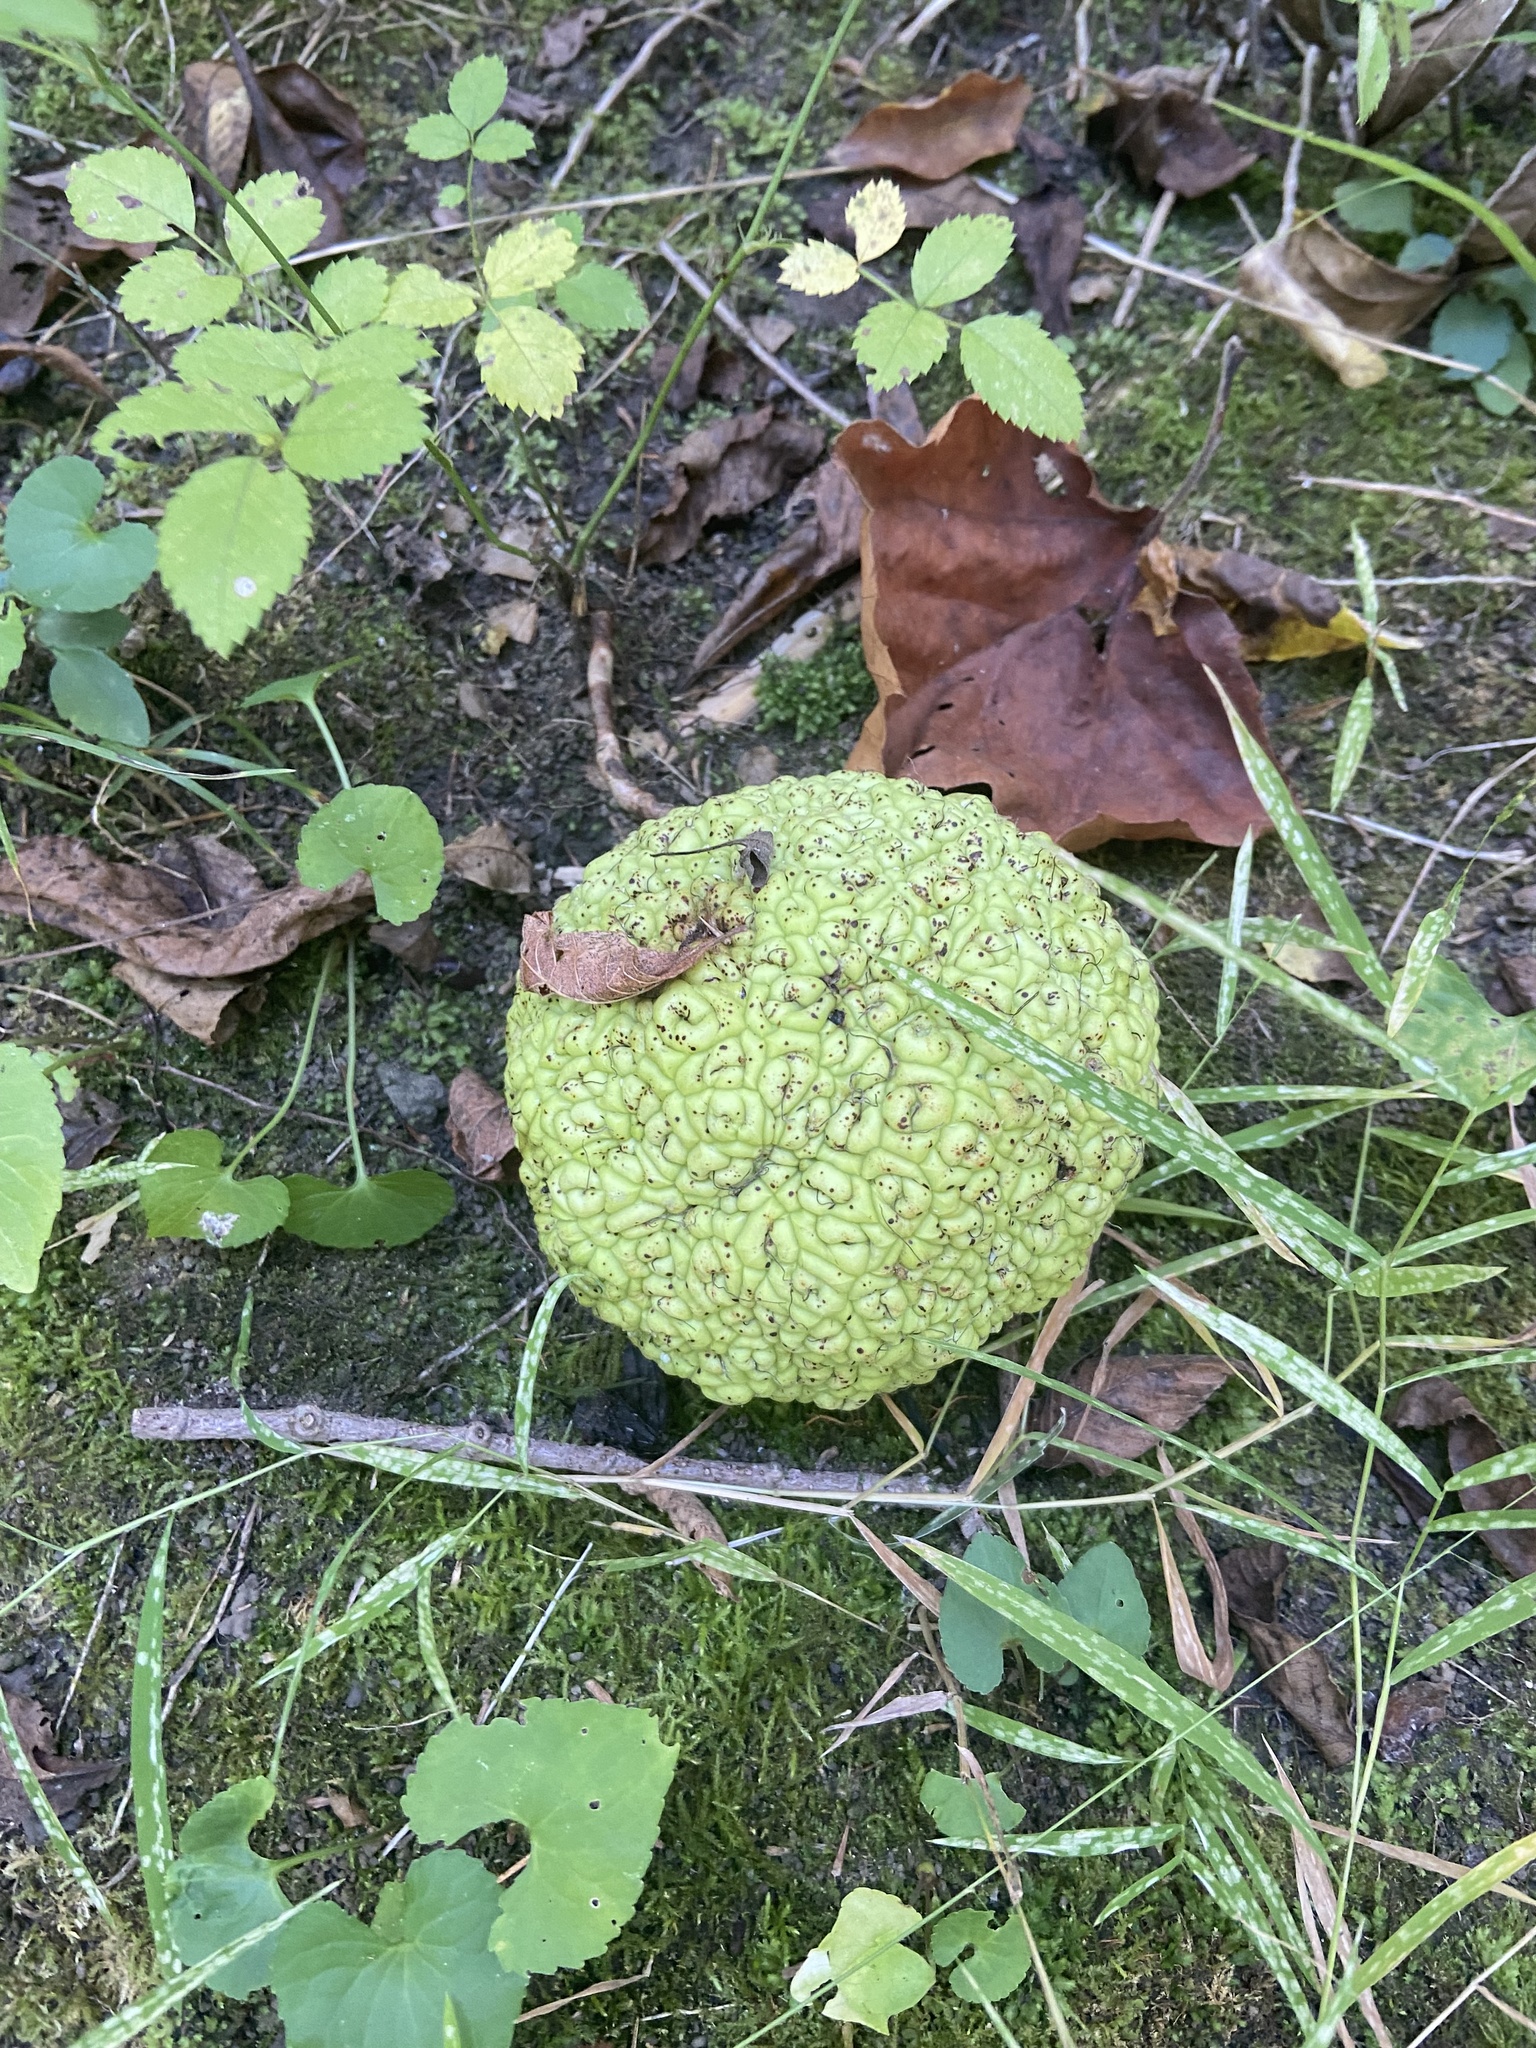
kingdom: Plantae
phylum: Tracheophyta
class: Magnoliopsida
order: Rosales
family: Moraceae
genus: Maclura
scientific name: Maclura pomifera
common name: Osage-orange
